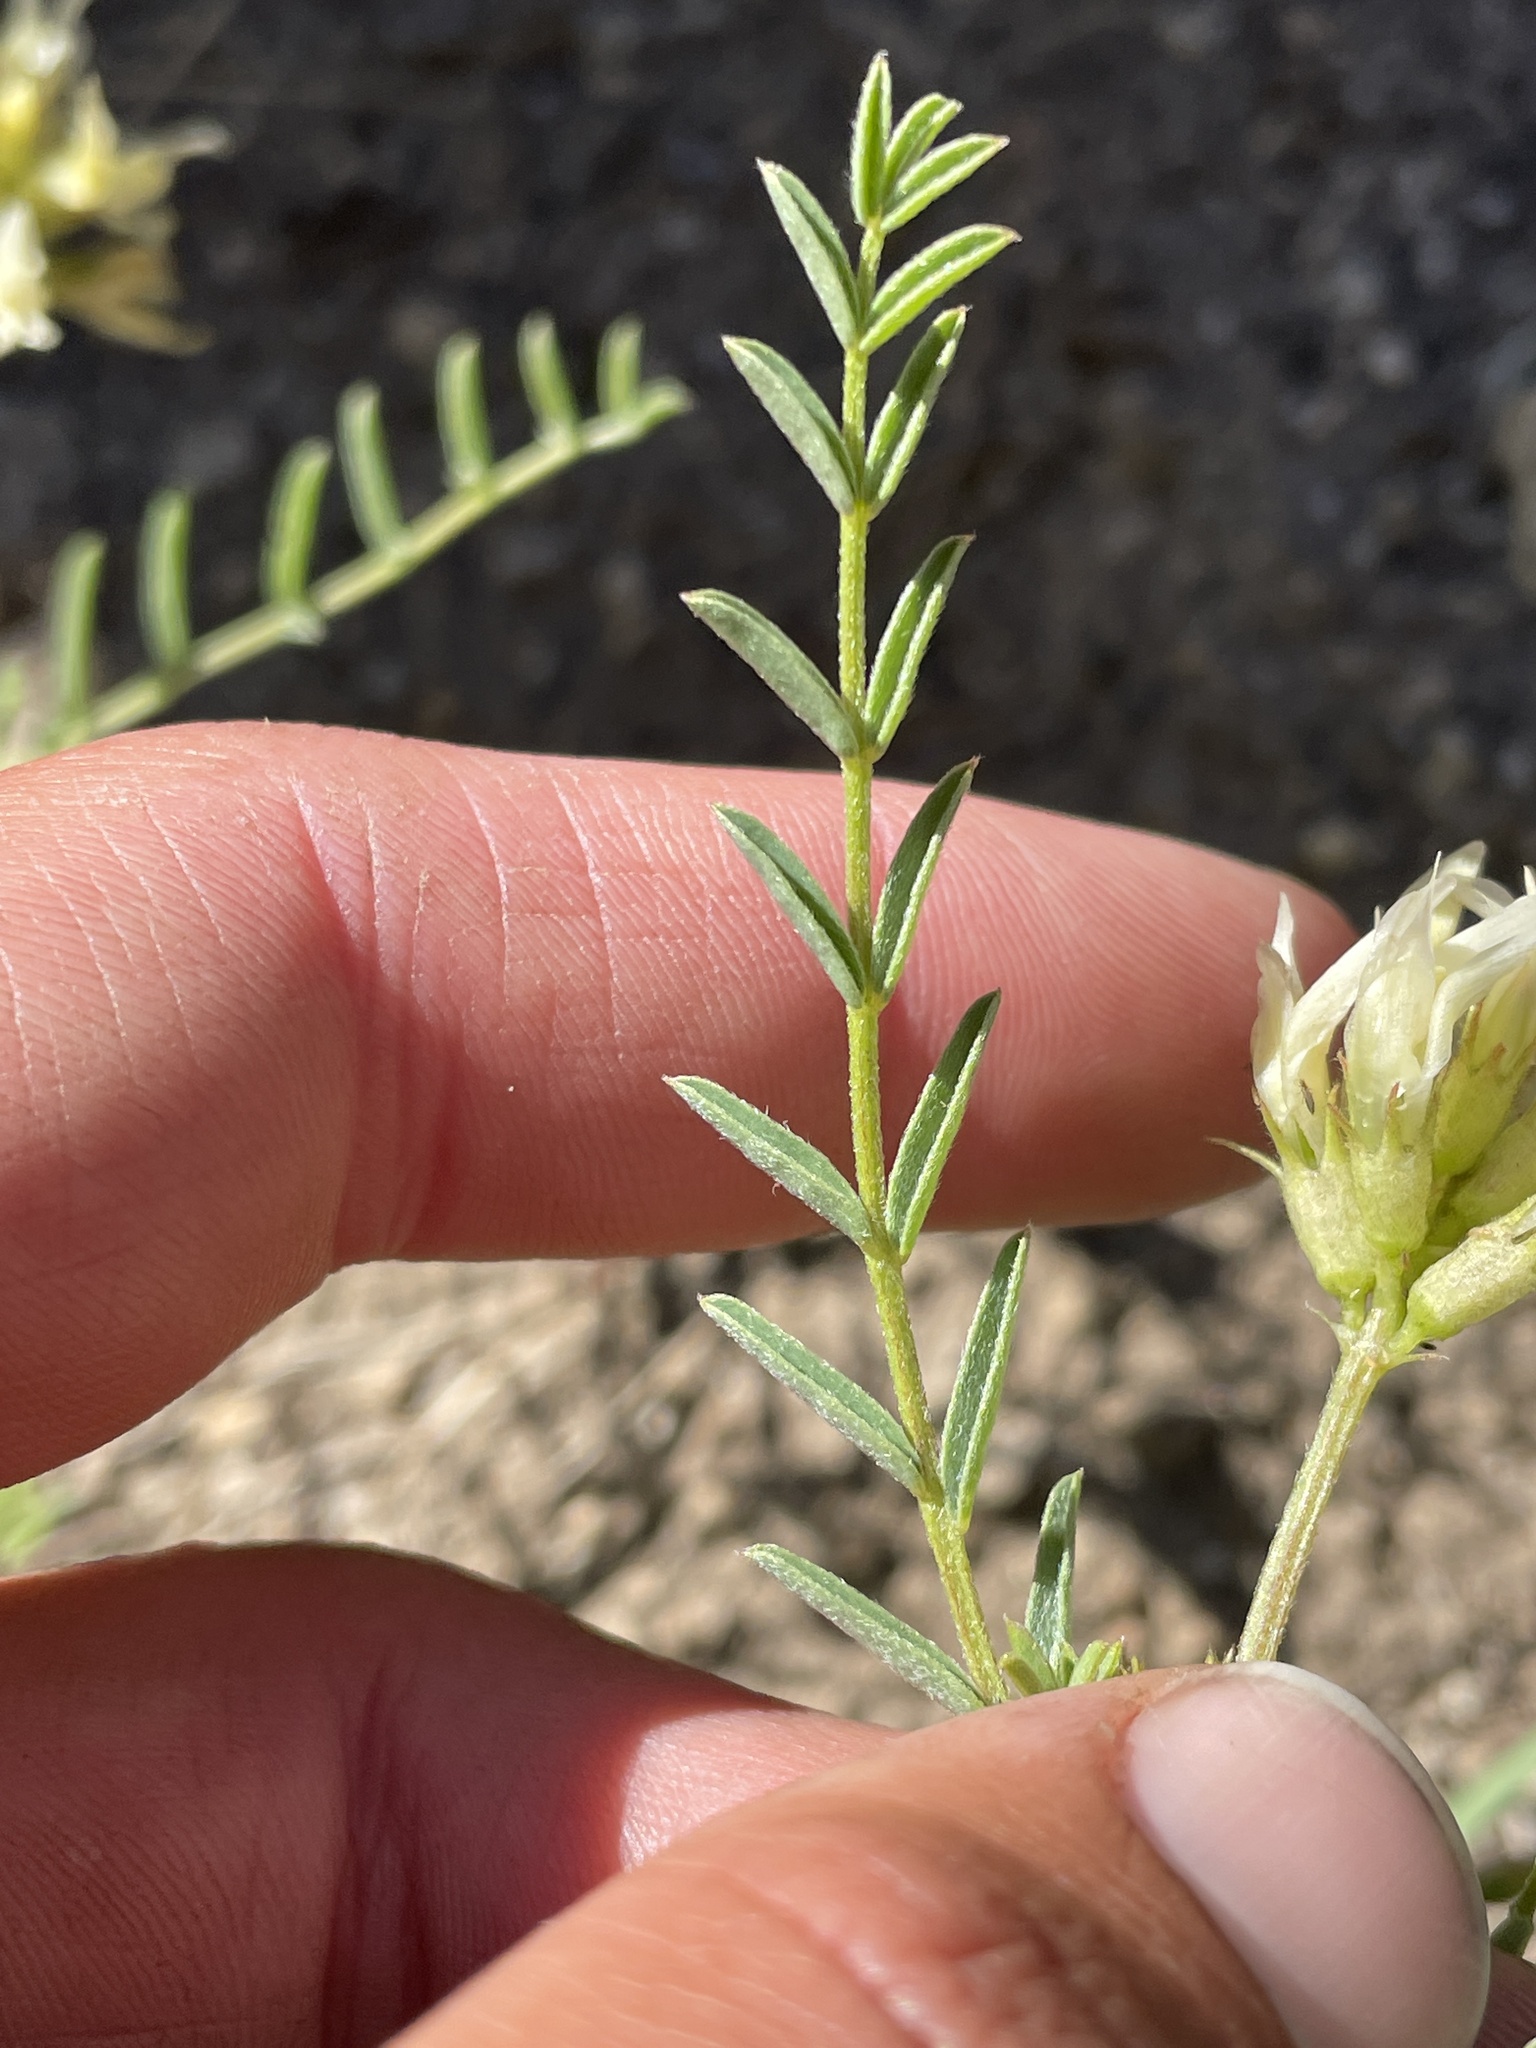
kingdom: Plantae
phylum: Tracheophyta
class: Magnoliopsida
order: Fabales
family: Fabaceae
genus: Astragalus
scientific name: Astragalus bolanderi
